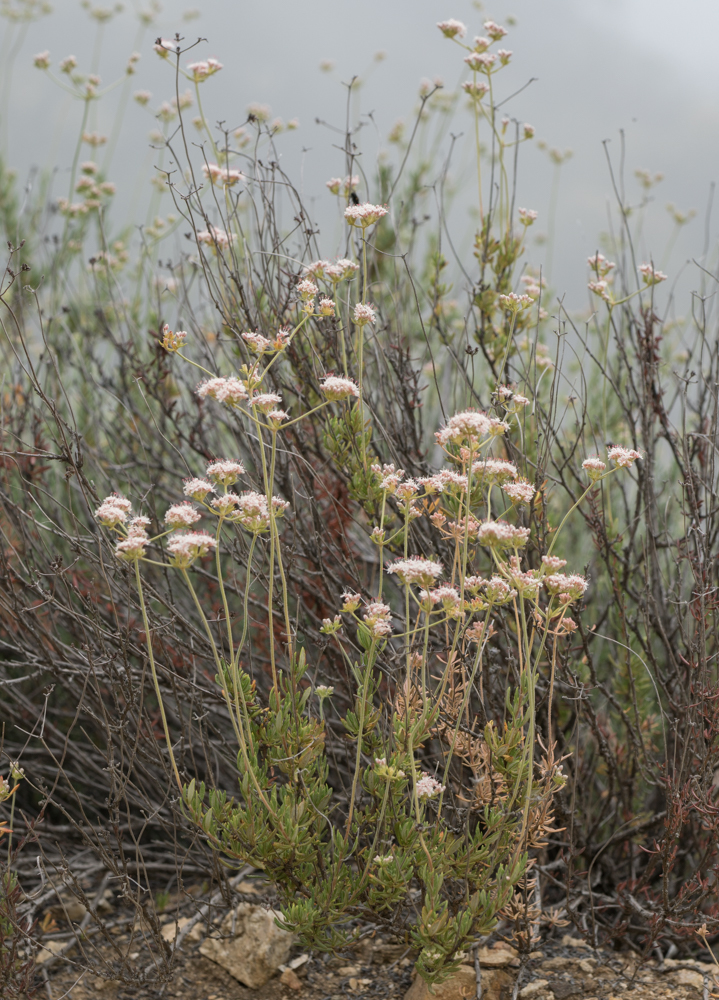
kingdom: Plantae
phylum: Tracheophyta
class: Magnoliopsida
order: Caryophyllales
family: Polygonaceae
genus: Eriogonum
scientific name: Eriogonum fasciculatum
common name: California wild buckwheat
